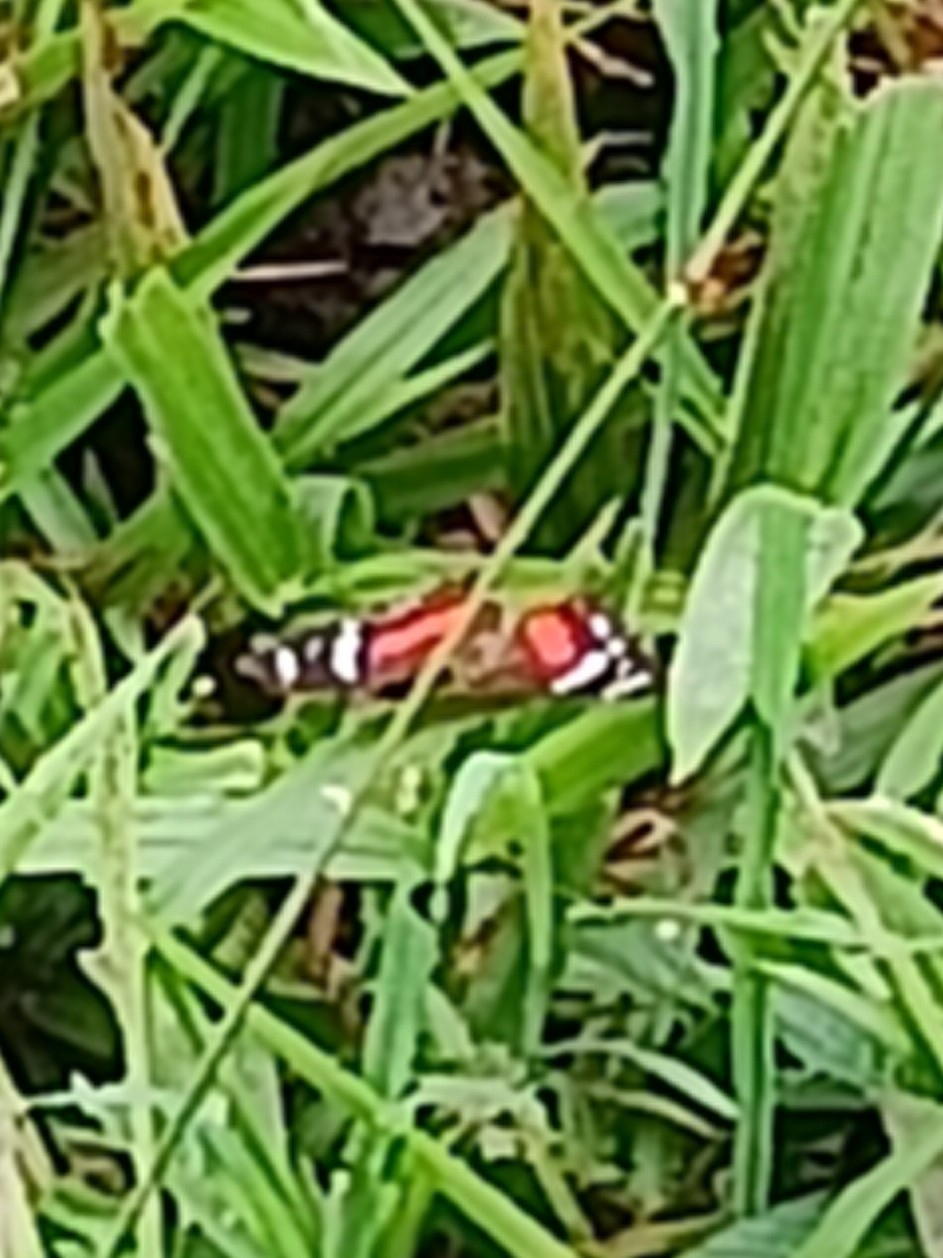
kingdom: Animalia
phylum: Arthropoda
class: Insecta
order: Lepidoptera
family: Nymphalidae
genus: Anartia
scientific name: Anartia amathea
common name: Red peacock
